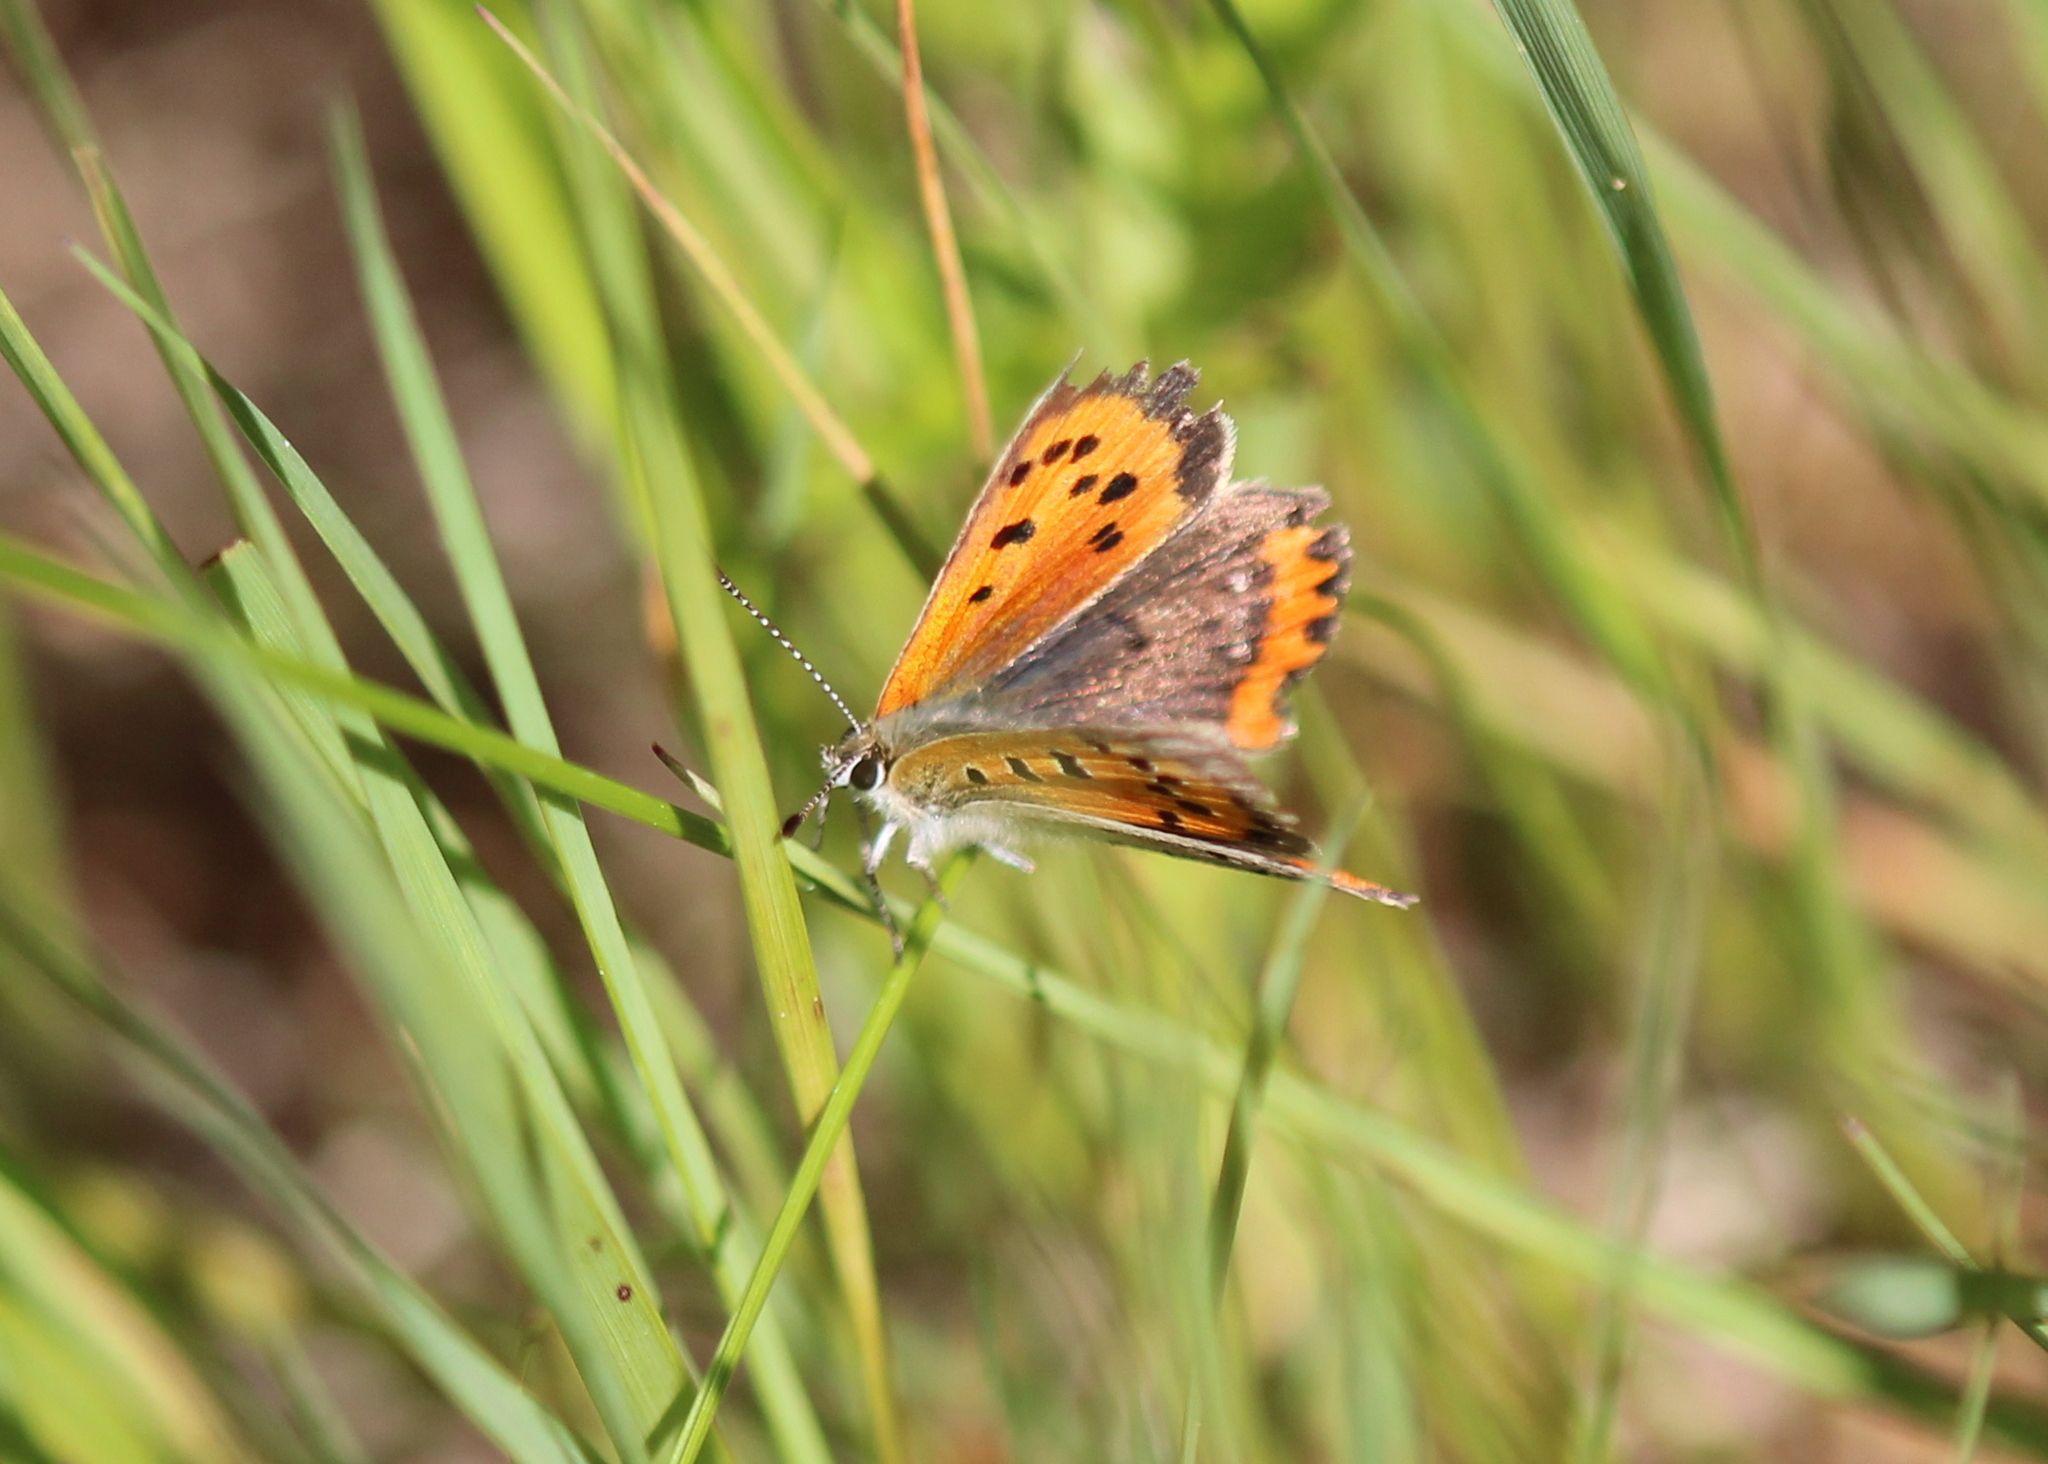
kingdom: Animalia
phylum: Arthropoda
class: Insecta
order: Lepidoptera
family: Lycaenidae
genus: Lycaena
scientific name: Lycaena hypophlaeas
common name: American copper
